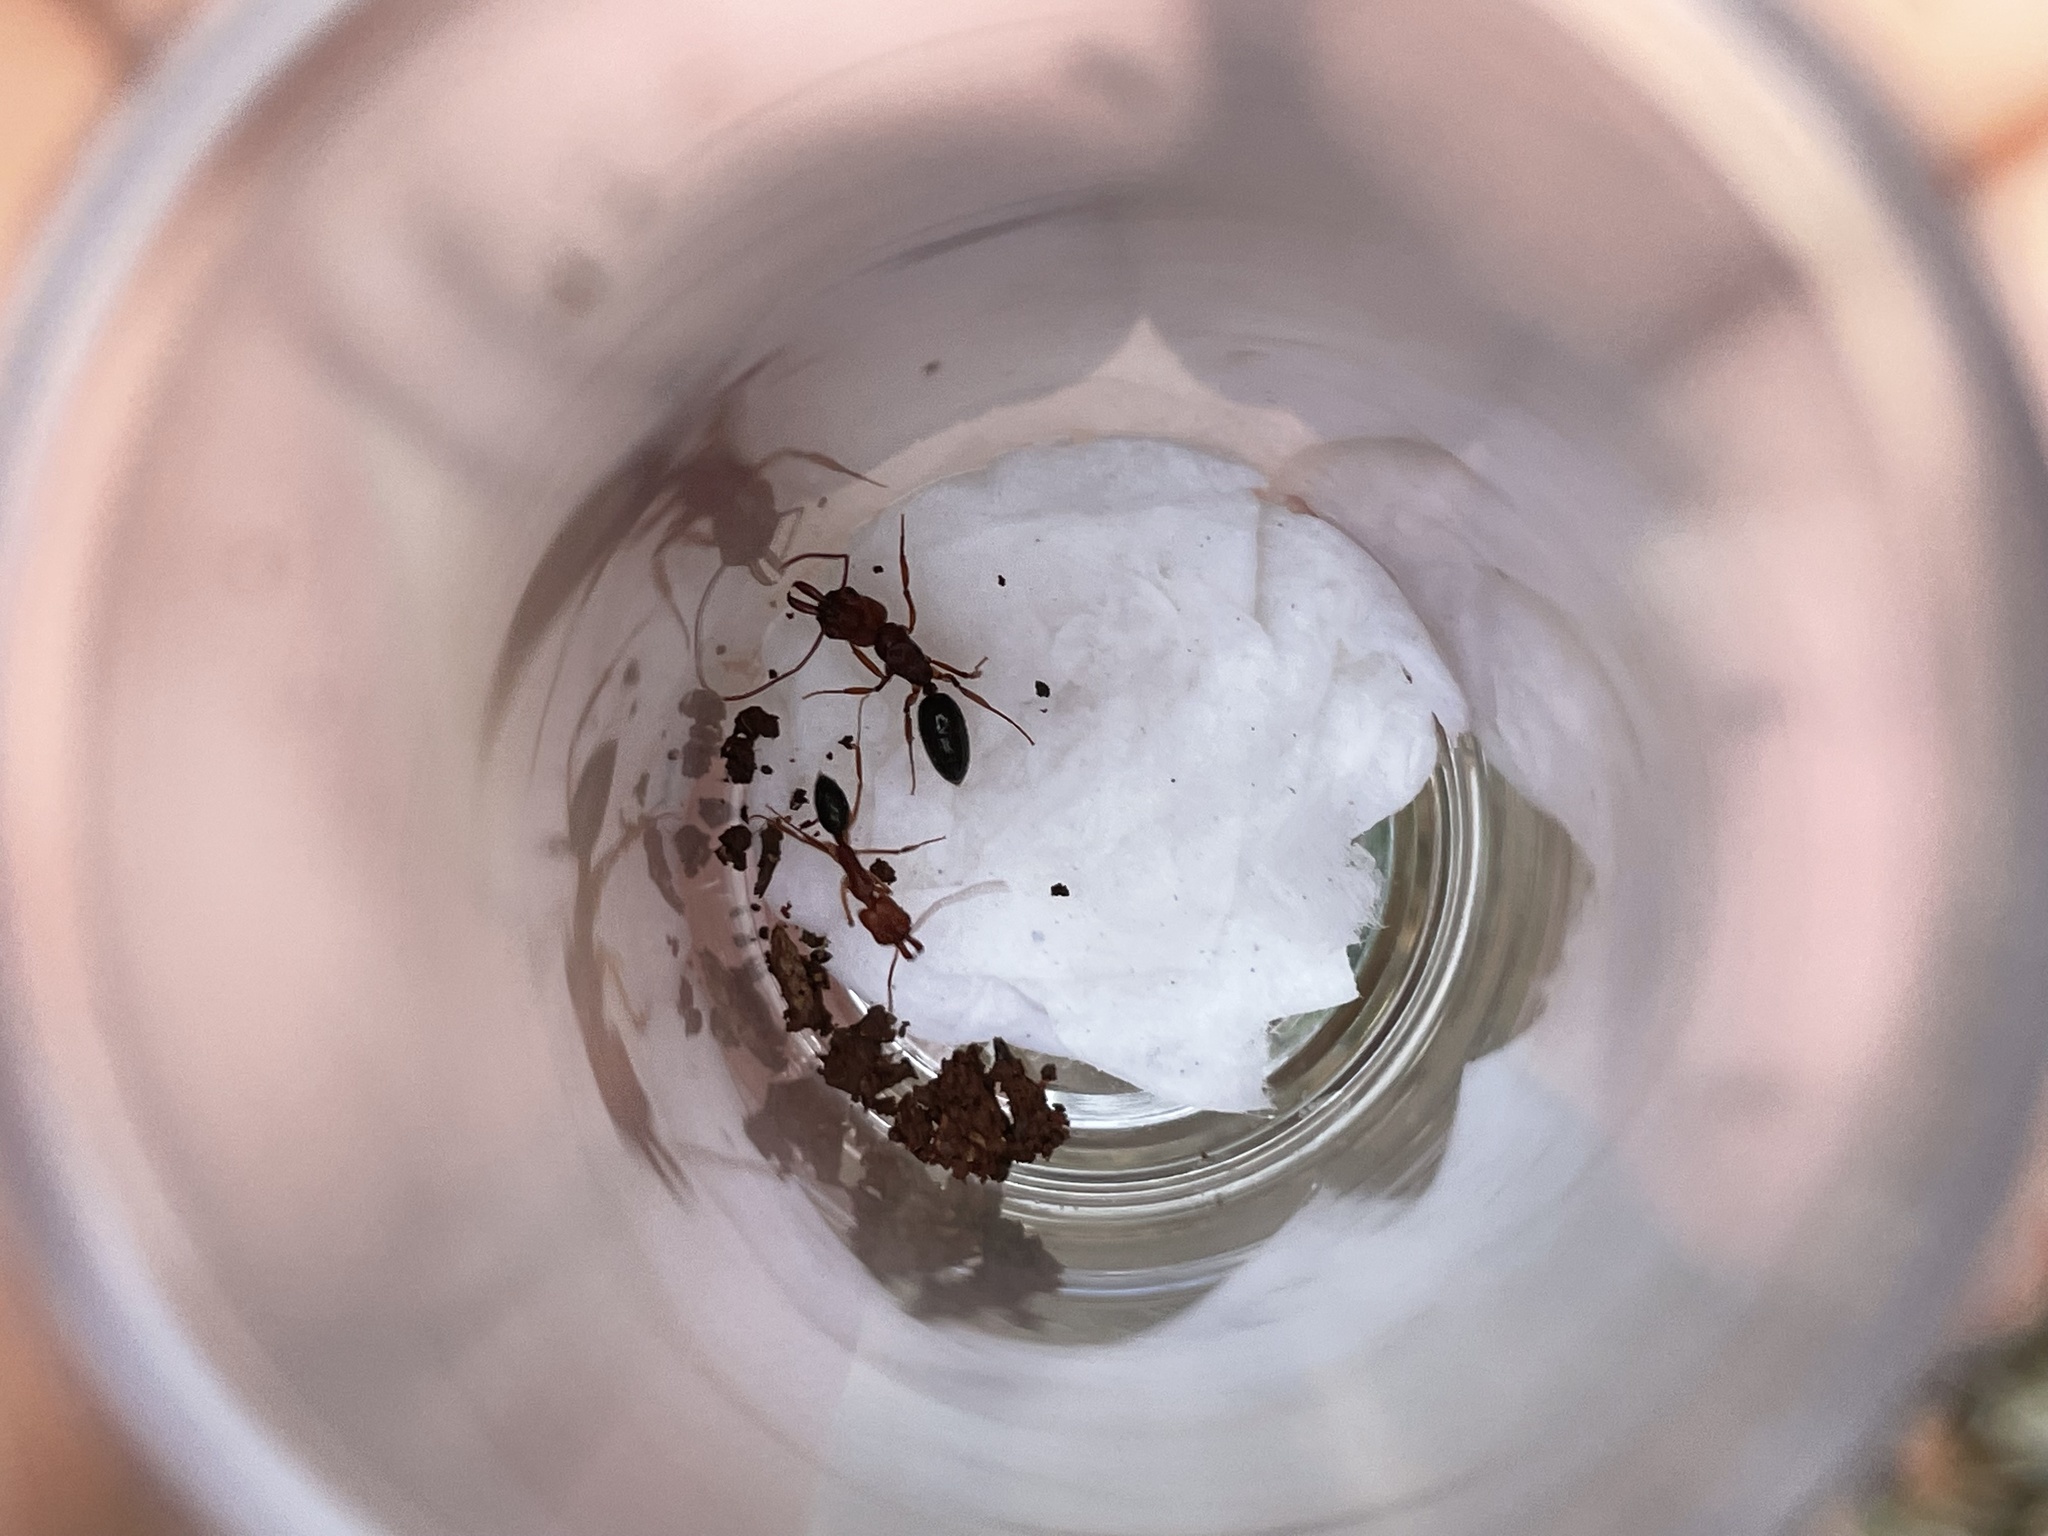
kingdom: Animalia
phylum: Arthropoda
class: Insecta
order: Hymenoptera
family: Formicidae
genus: Odontomachus
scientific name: Odontomachus clarus
